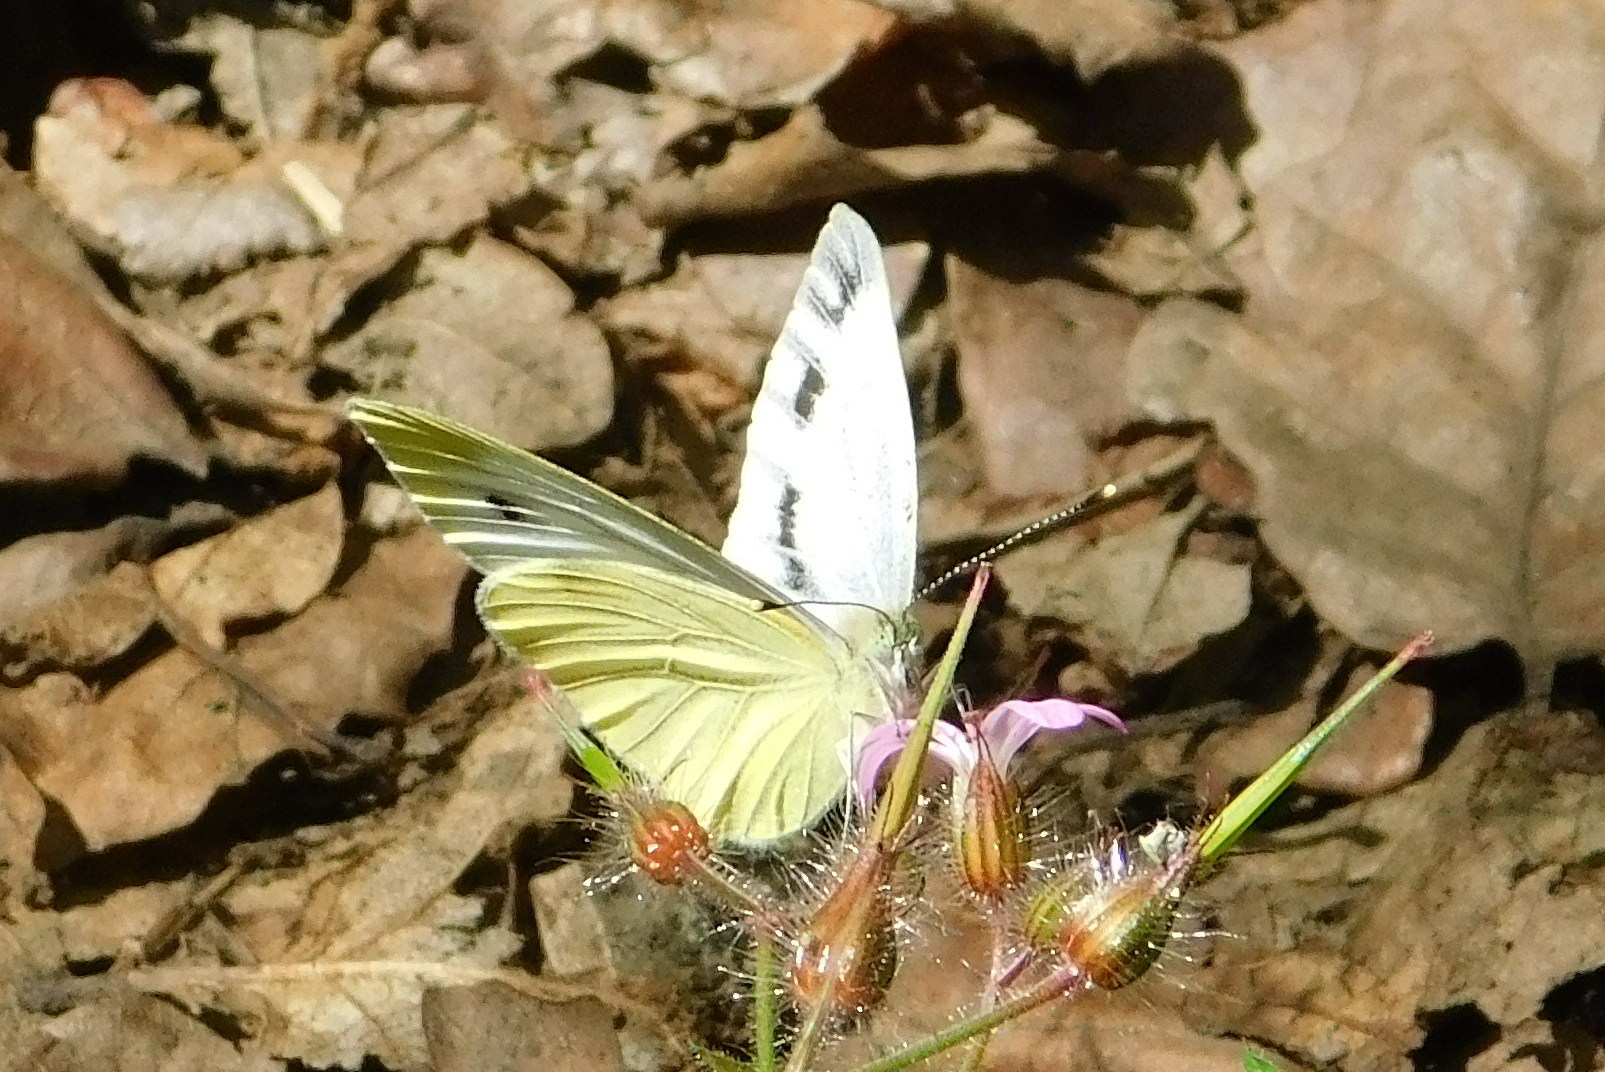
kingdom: Animalia
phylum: Arthropoda
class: Insecta
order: Lepidoptera
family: Pieridae
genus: Pieris
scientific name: Pieris napi
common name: Green-veined white
